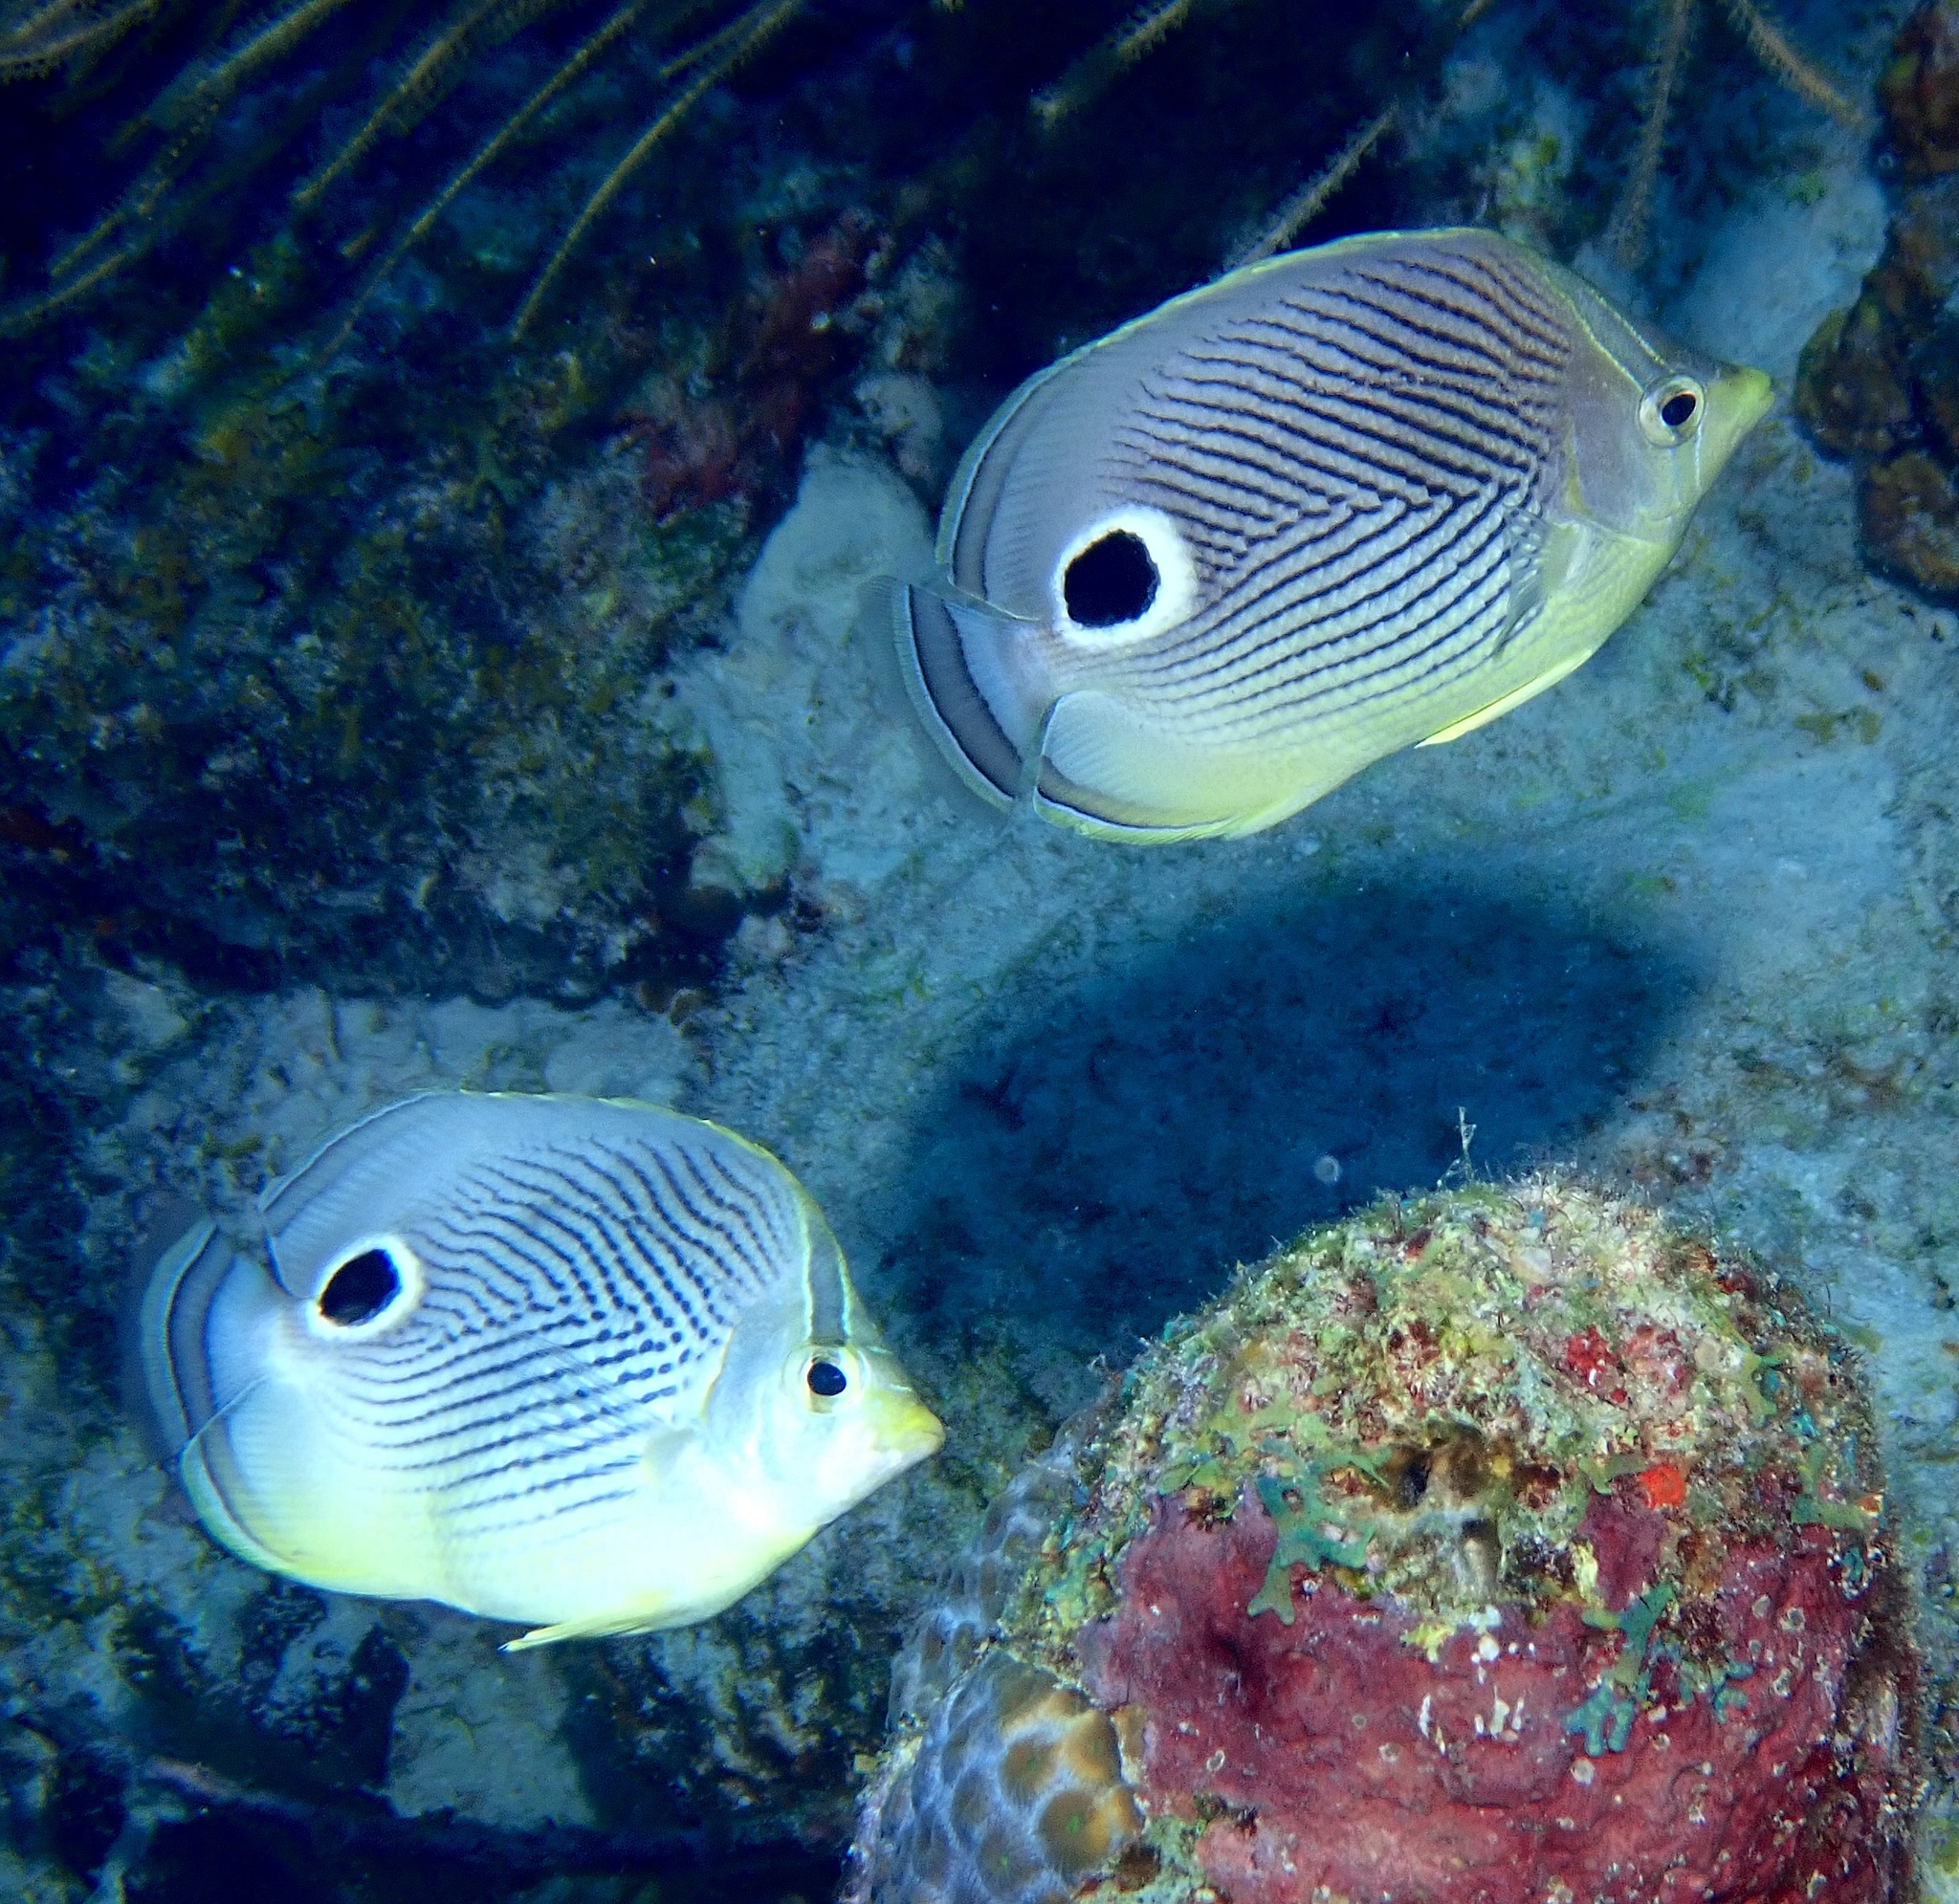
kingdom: Animalia
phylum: Chordata
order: Perciformes
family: Chaetodontidae
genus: Chaetodon
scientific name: Chaetodon capistratus
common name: Kete
